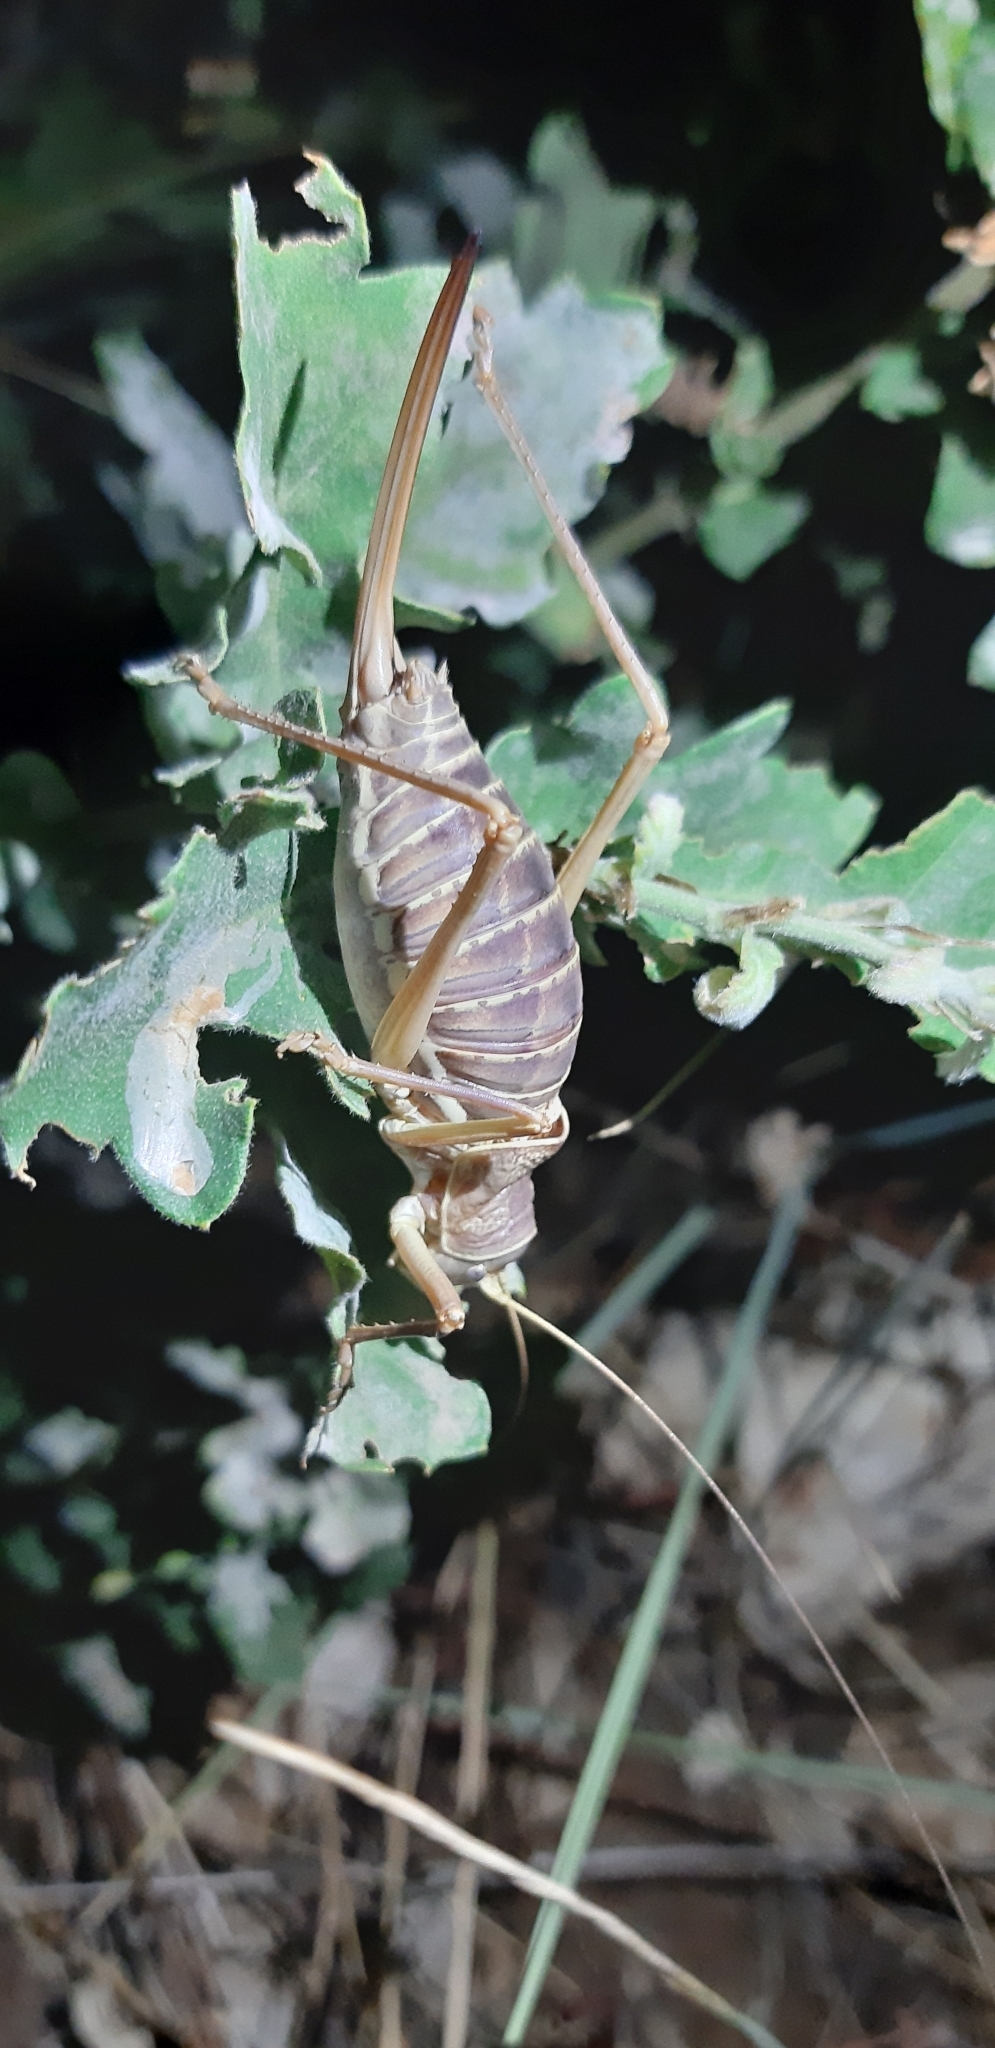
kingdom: Animalia
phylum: Arthropoda
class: Insecta
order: Orthoptera
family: Tettigoniidae
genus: Ephippiger
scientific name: Ephippiger apulus
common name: Apulian saddle bush-cricket
